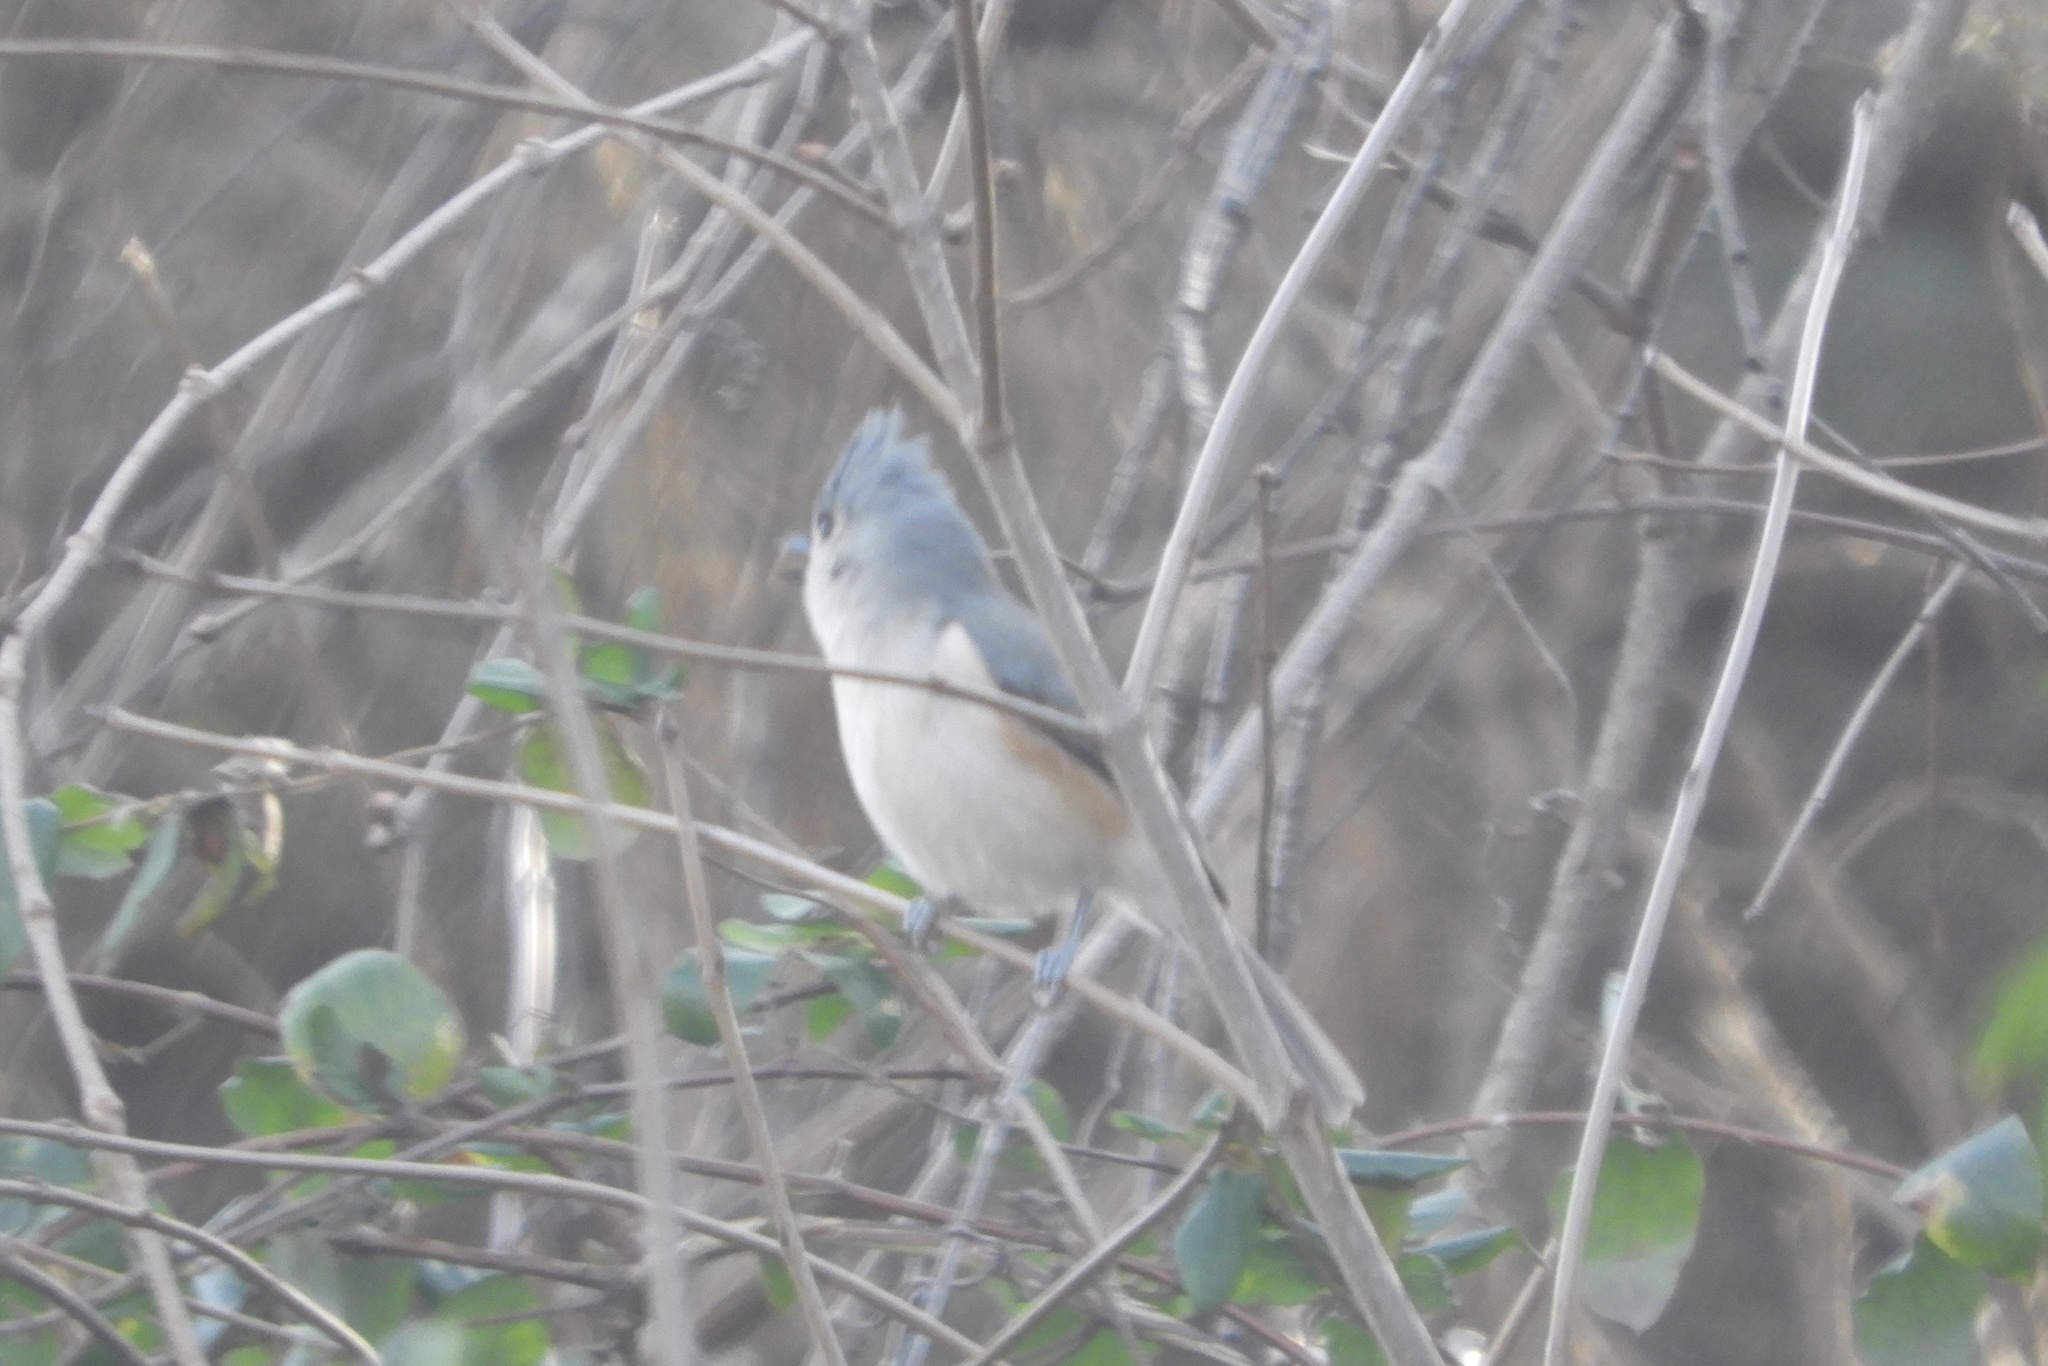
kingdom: Animalia
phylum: Chordata
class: Aves
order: Passeriformes
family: Paridae
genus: Baeolophus
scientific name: Baeolophus bicolor
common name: Tufted titmouse
